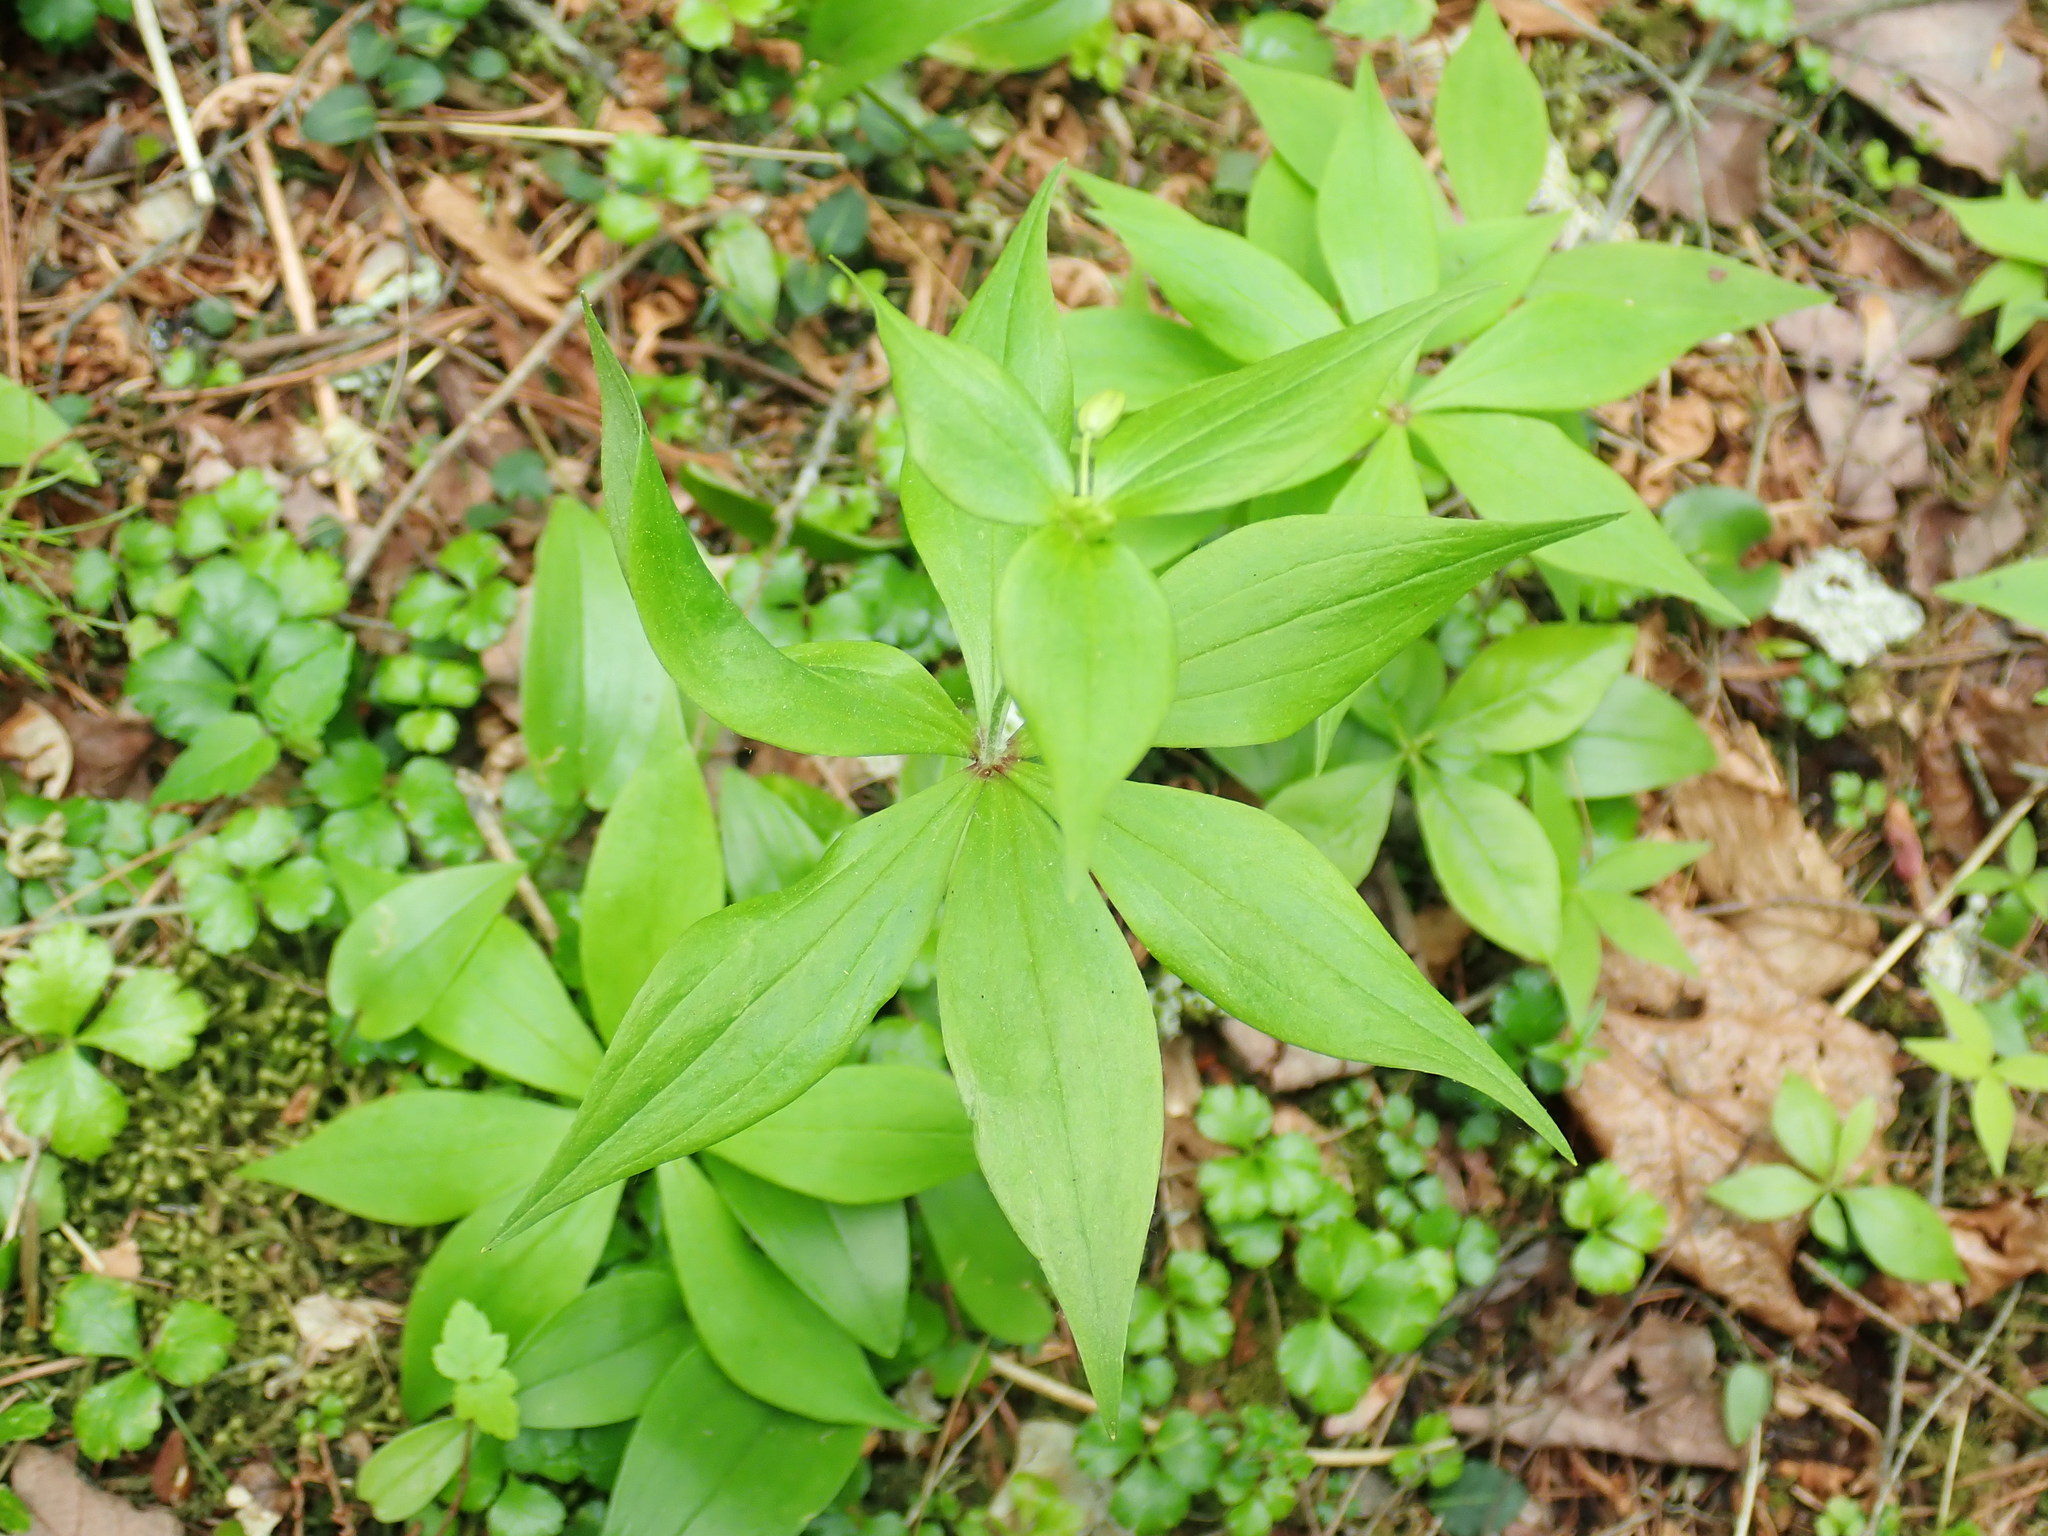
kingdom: Plantae
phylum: Tracheophyta
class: Liliopsida
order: Liliales
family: Liliaceae
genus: Medeola
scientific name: Medeola virginiana
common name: Indian cucumber-root
